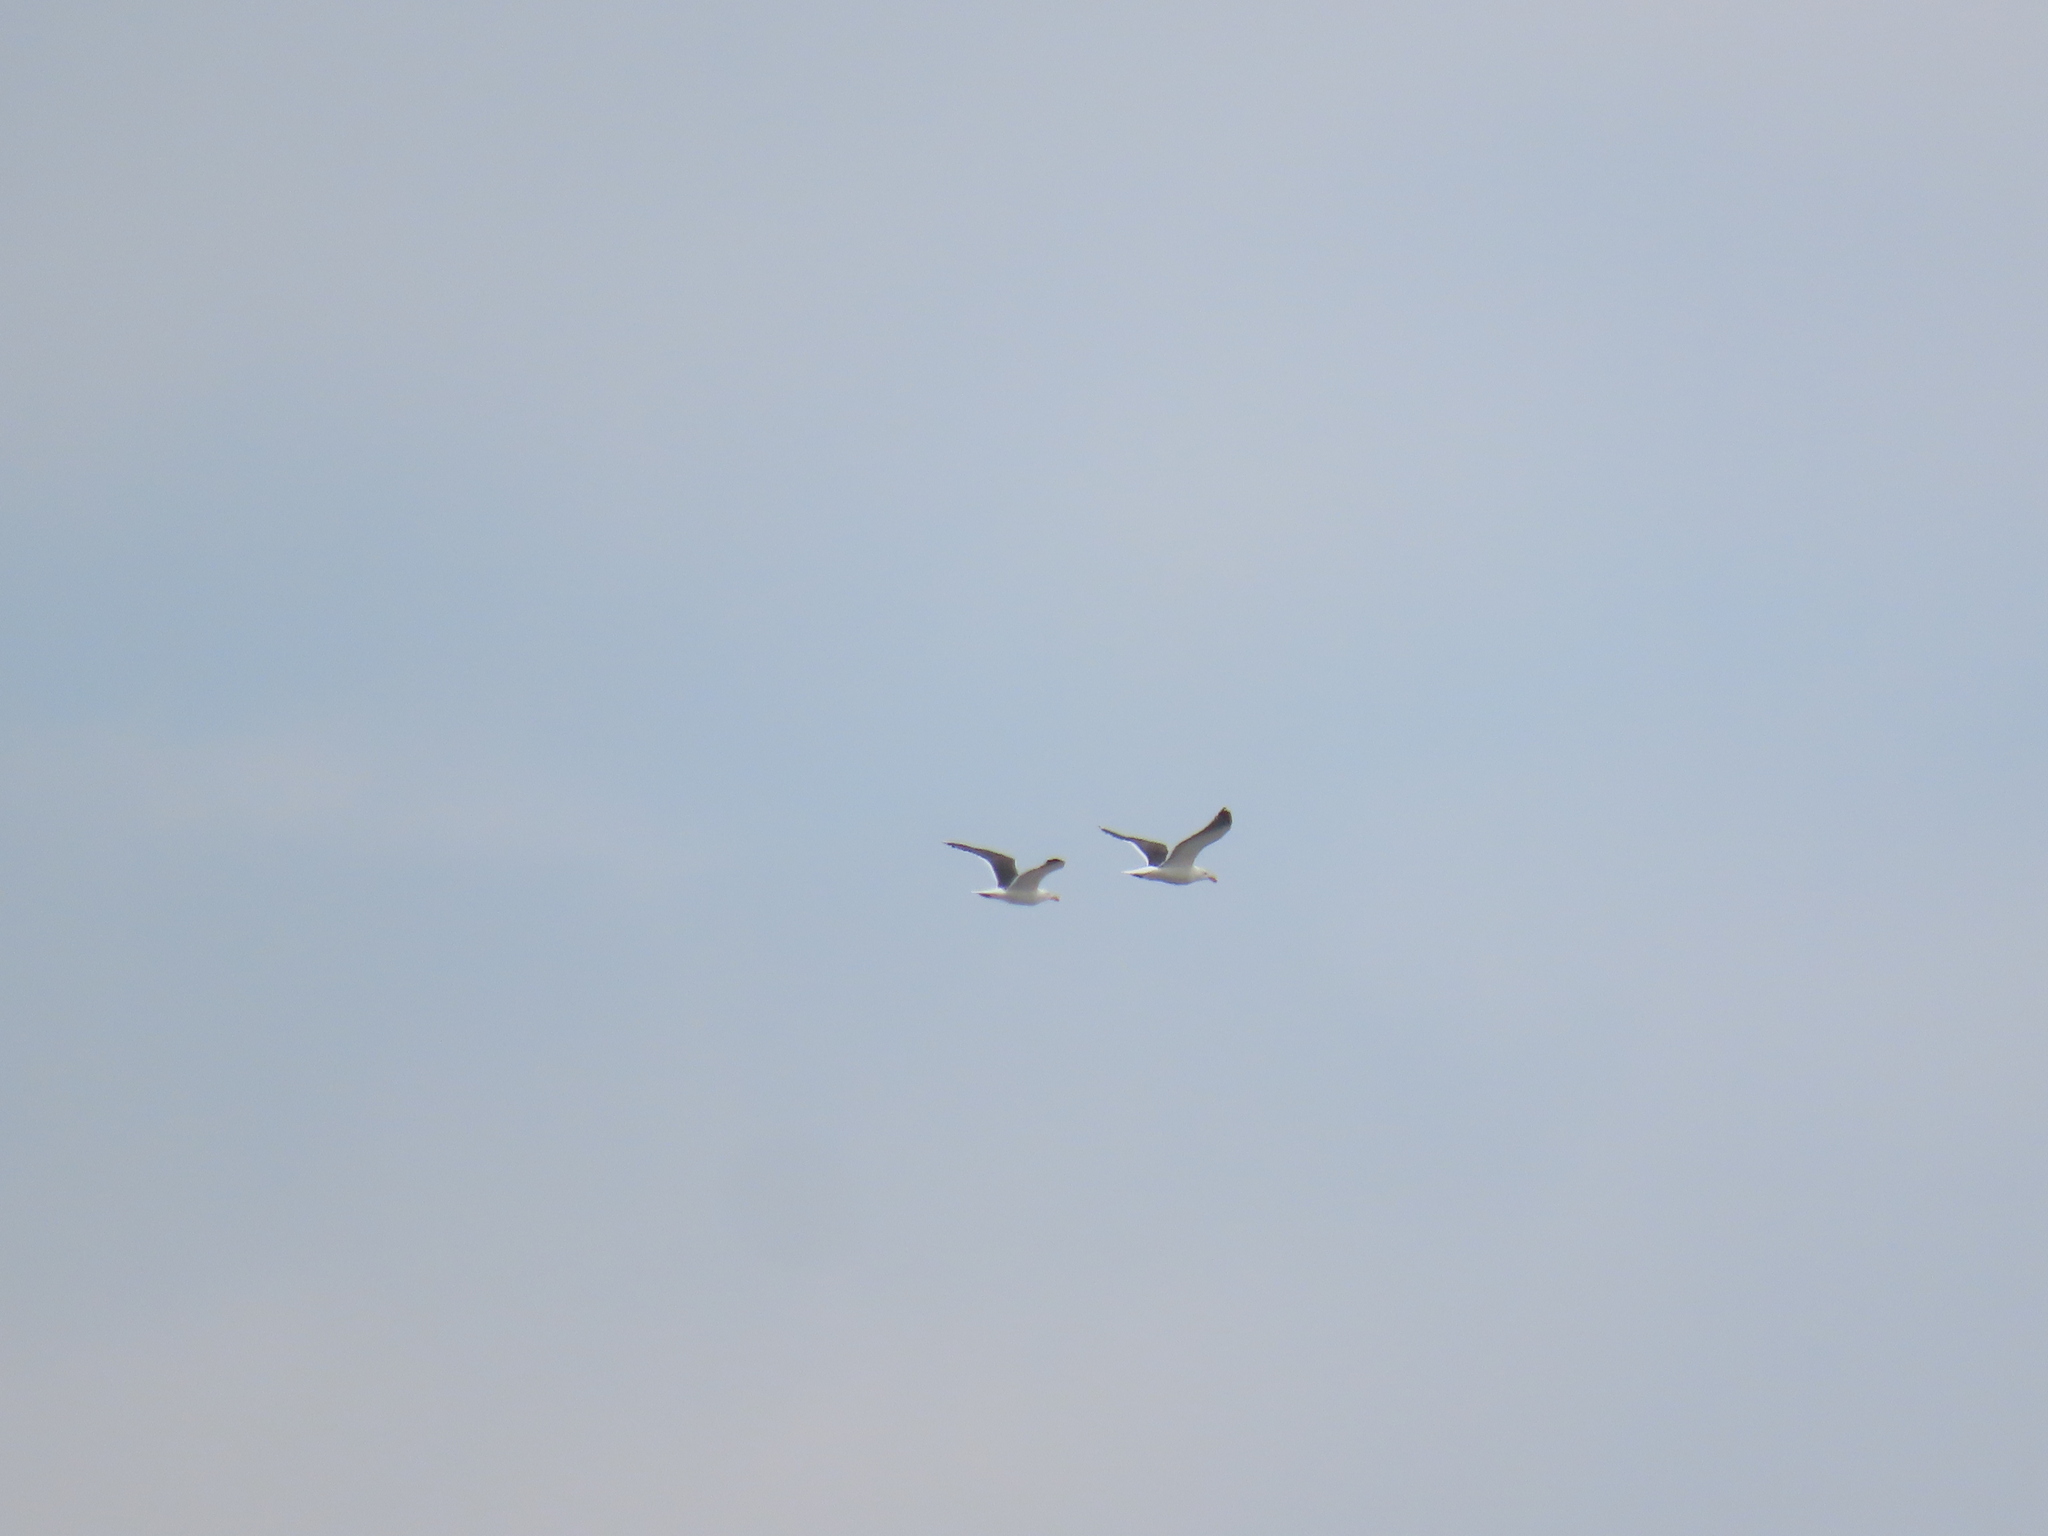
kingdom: Animalia
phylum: Chordata
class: Aves
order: Charadriiformes
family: Laridae
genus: Larus
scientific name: Larus marinus
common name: Great black-backed gull
